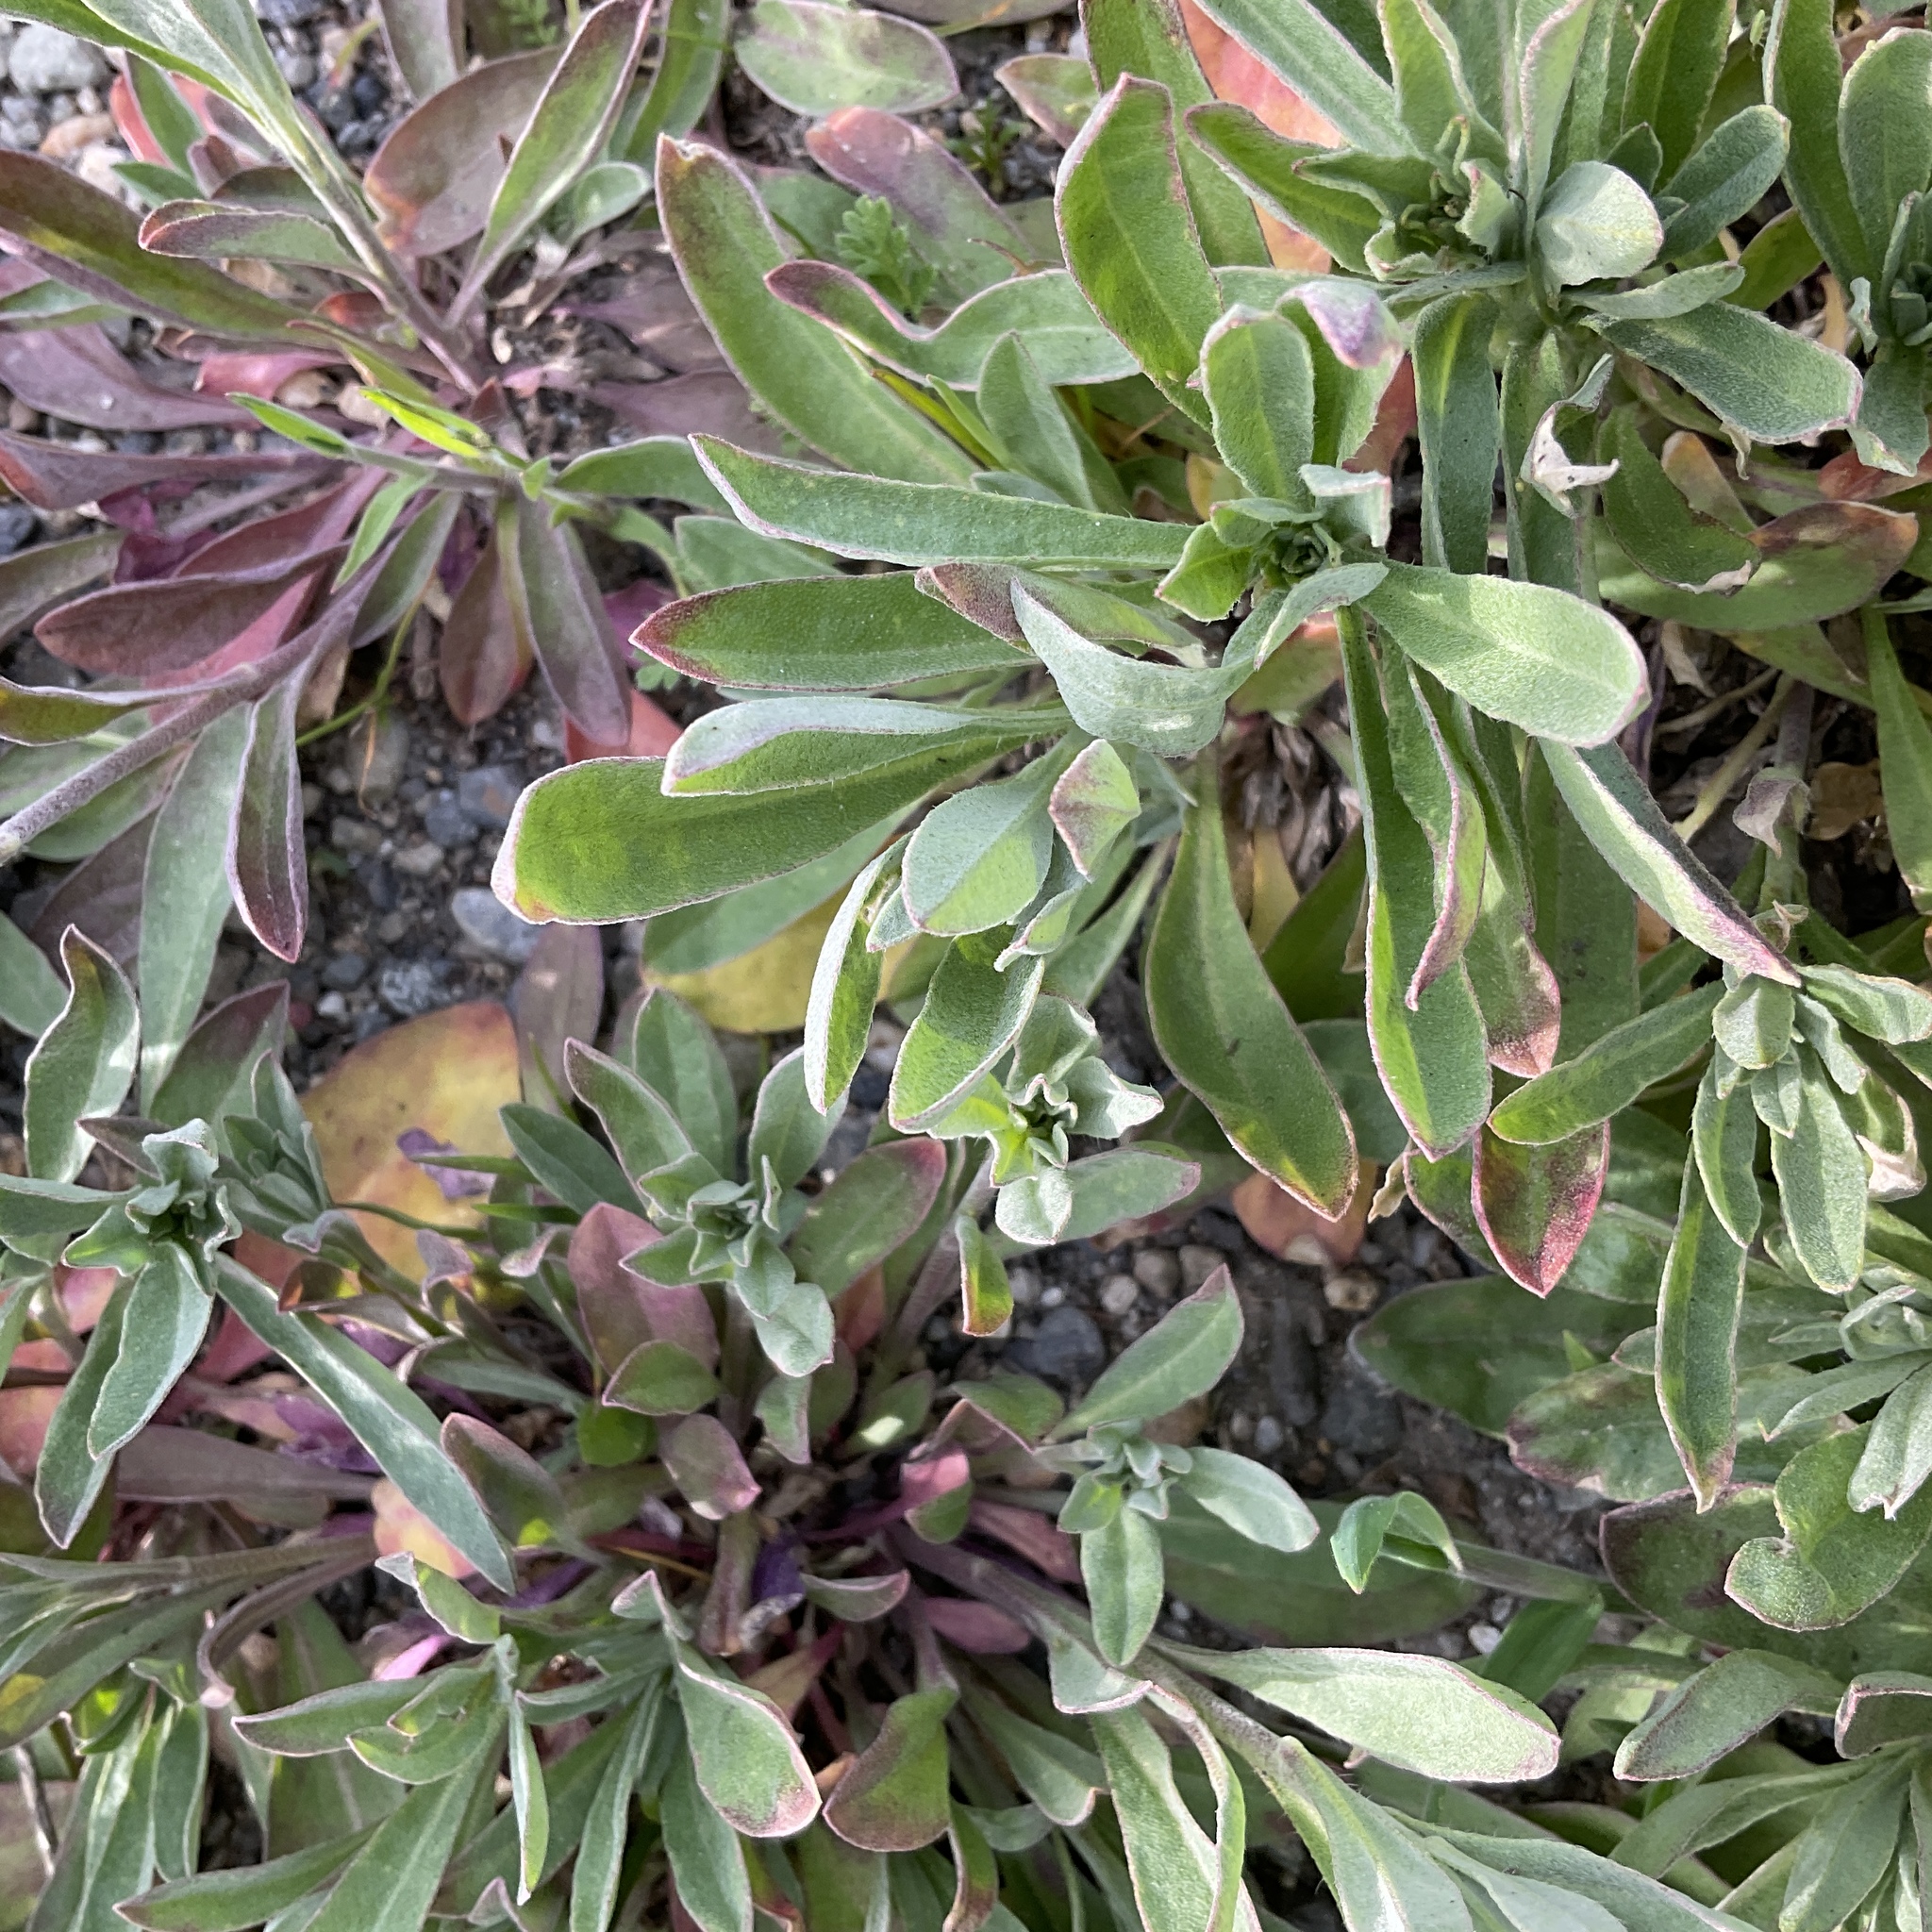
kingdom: Plantae
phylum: Tracheophyta
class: Magnoliopsida
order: Brassicales
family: Brassicaceae
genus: Berteroa
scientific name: Berteroa incana
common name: Hoary alison
